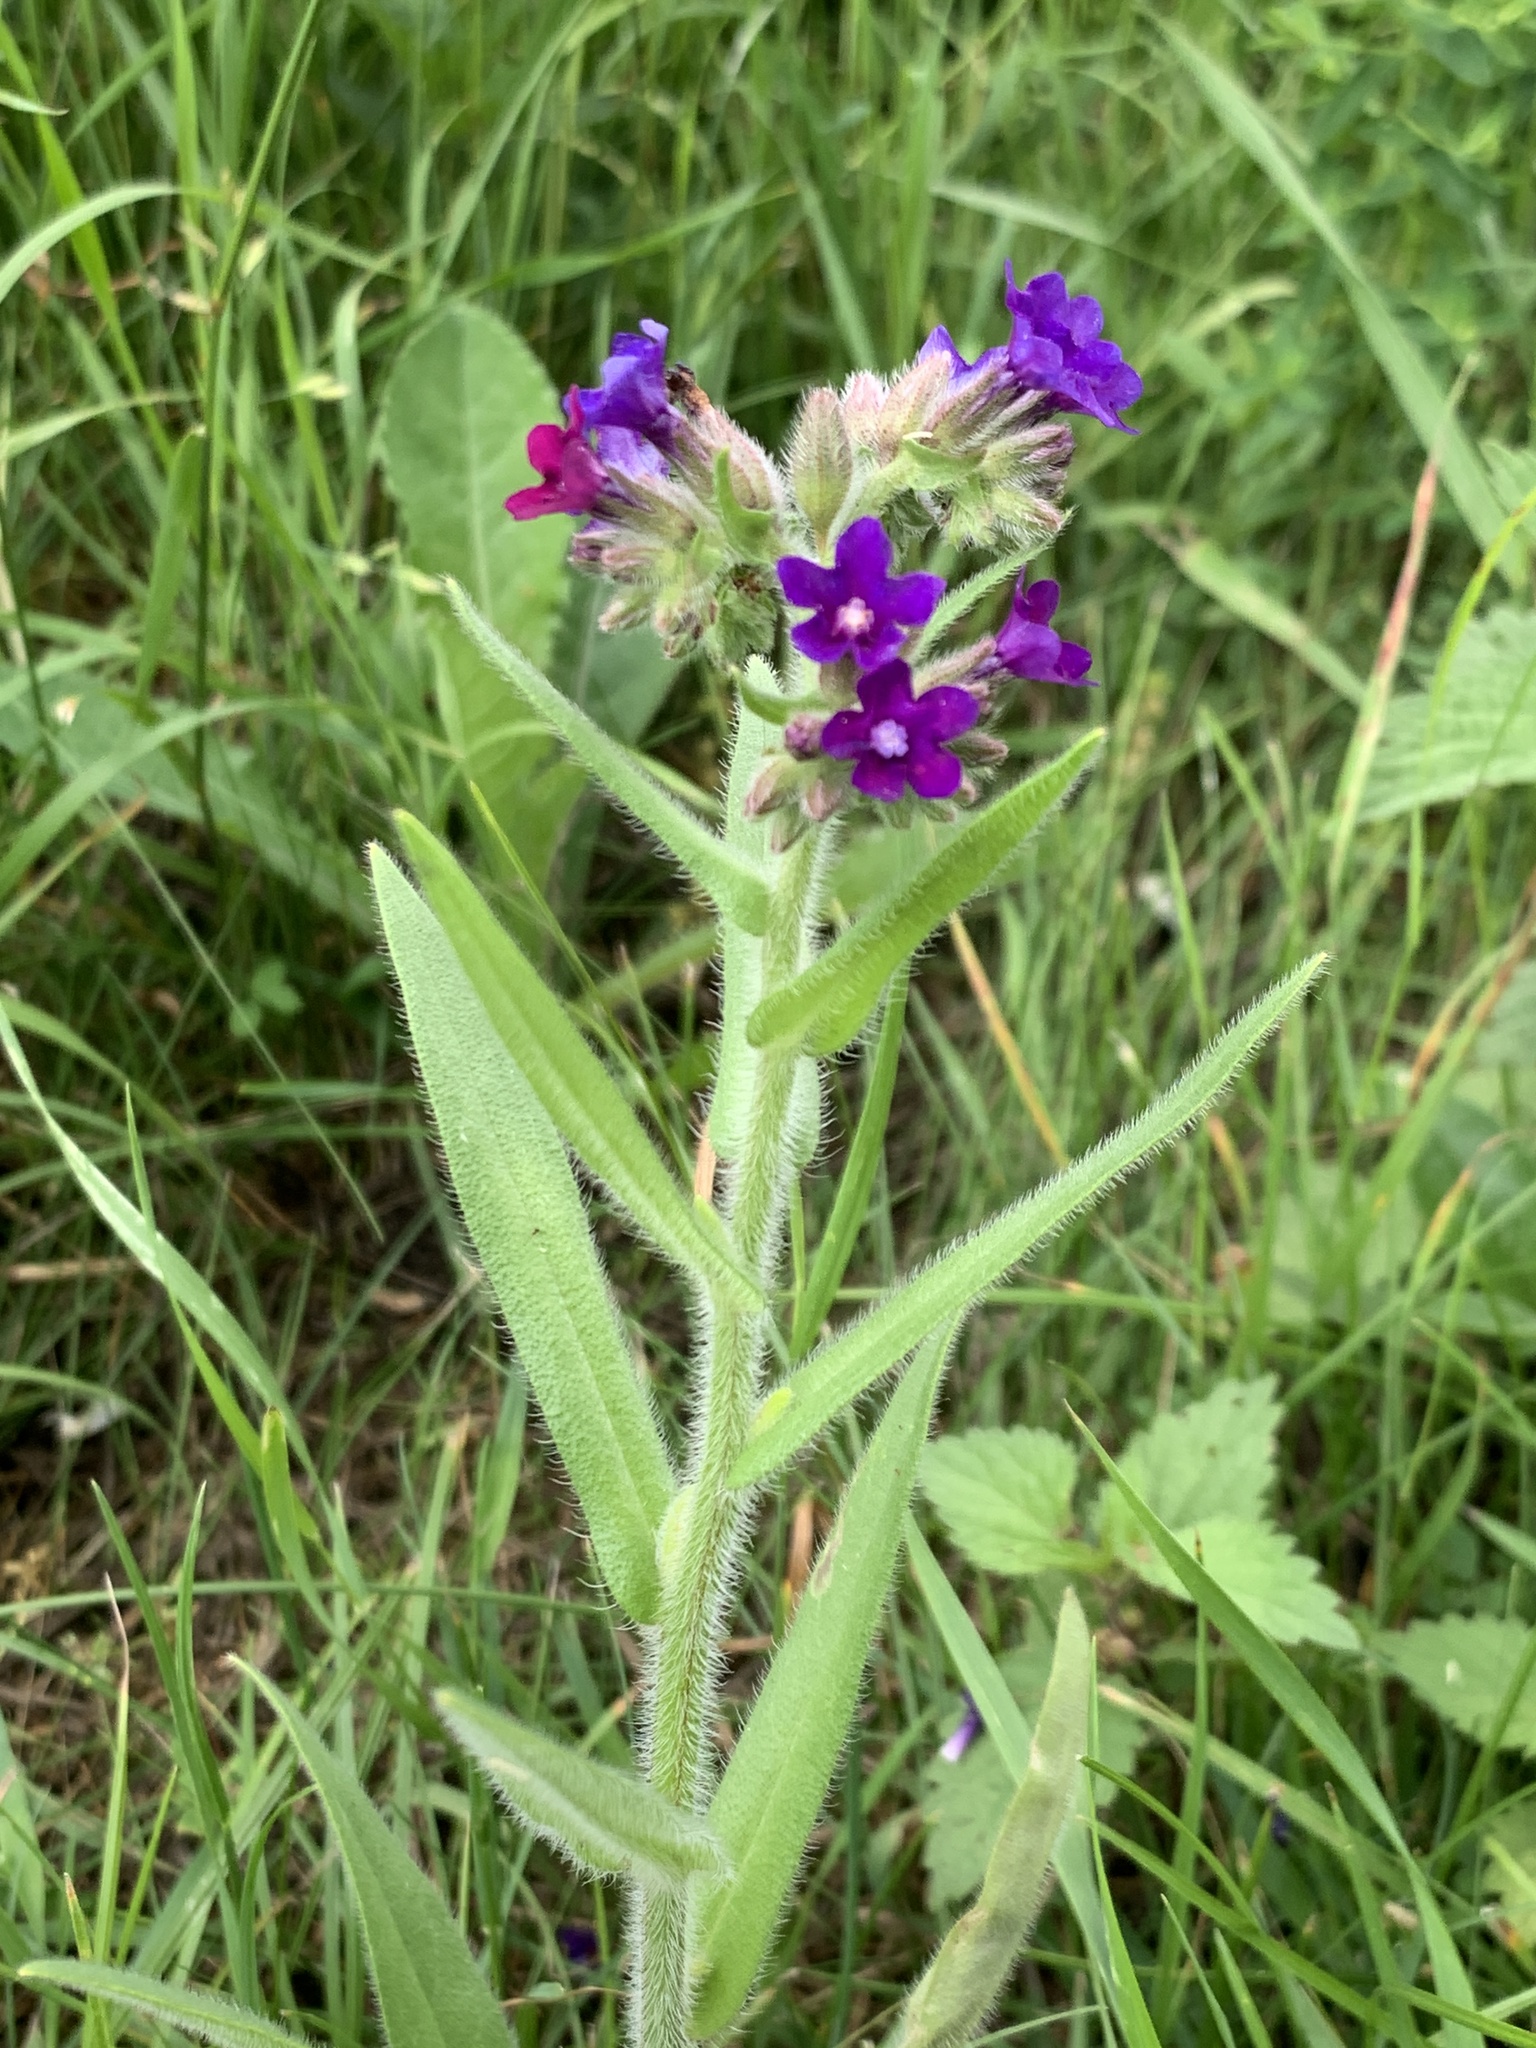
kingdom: Plantae
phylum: Tracheophyta
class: Magnoliopsida
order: Boraginales
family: Boraginaceae
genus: Anchusa
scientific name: Anchusa officinalis
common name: Alkanet
